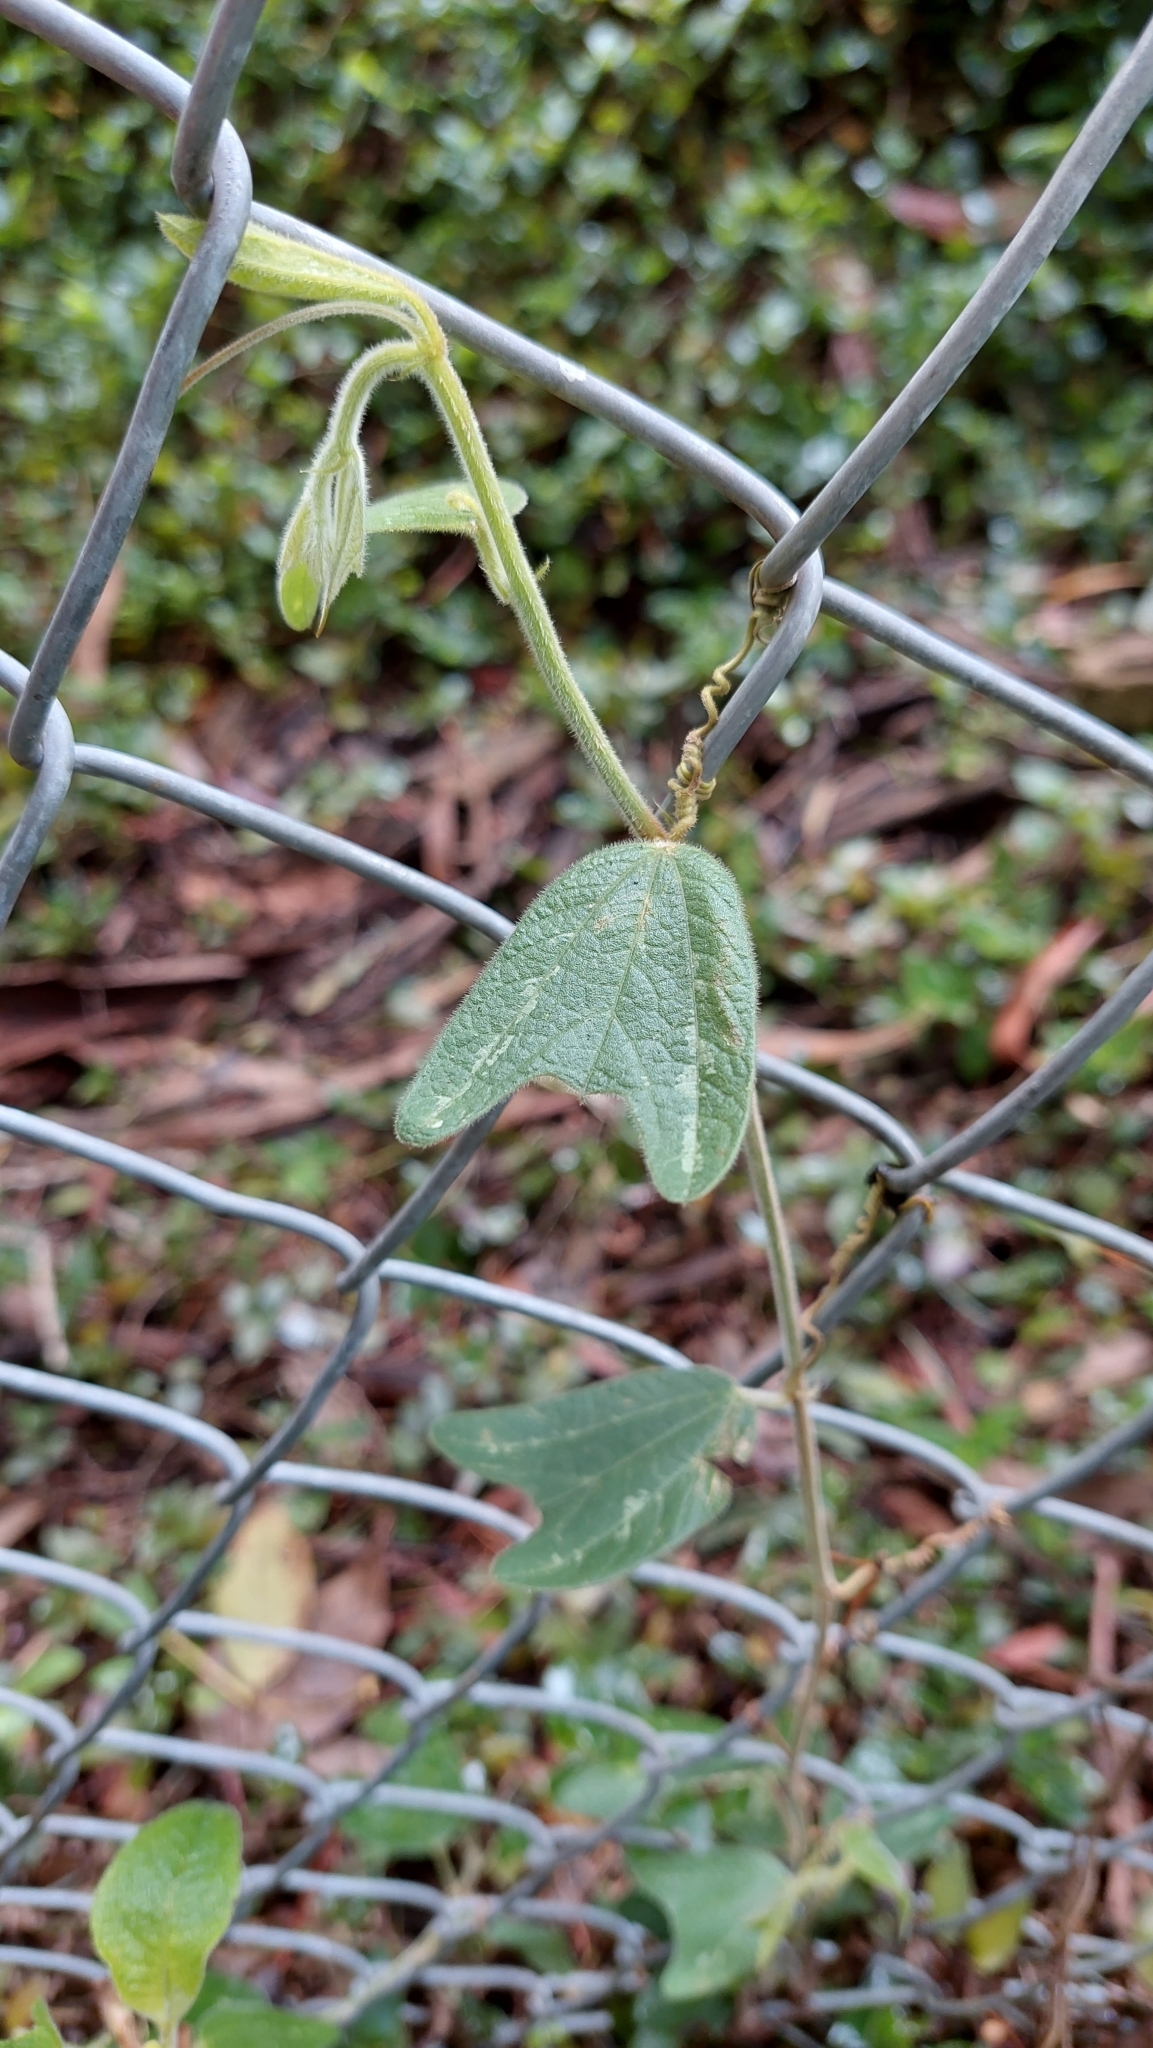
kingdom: Plantae
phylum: Tracheophyta
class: Magnoliopsida
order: Malpighiales
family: Passifloraceae
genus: Passiflora
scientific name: Passiflora bogotensis
